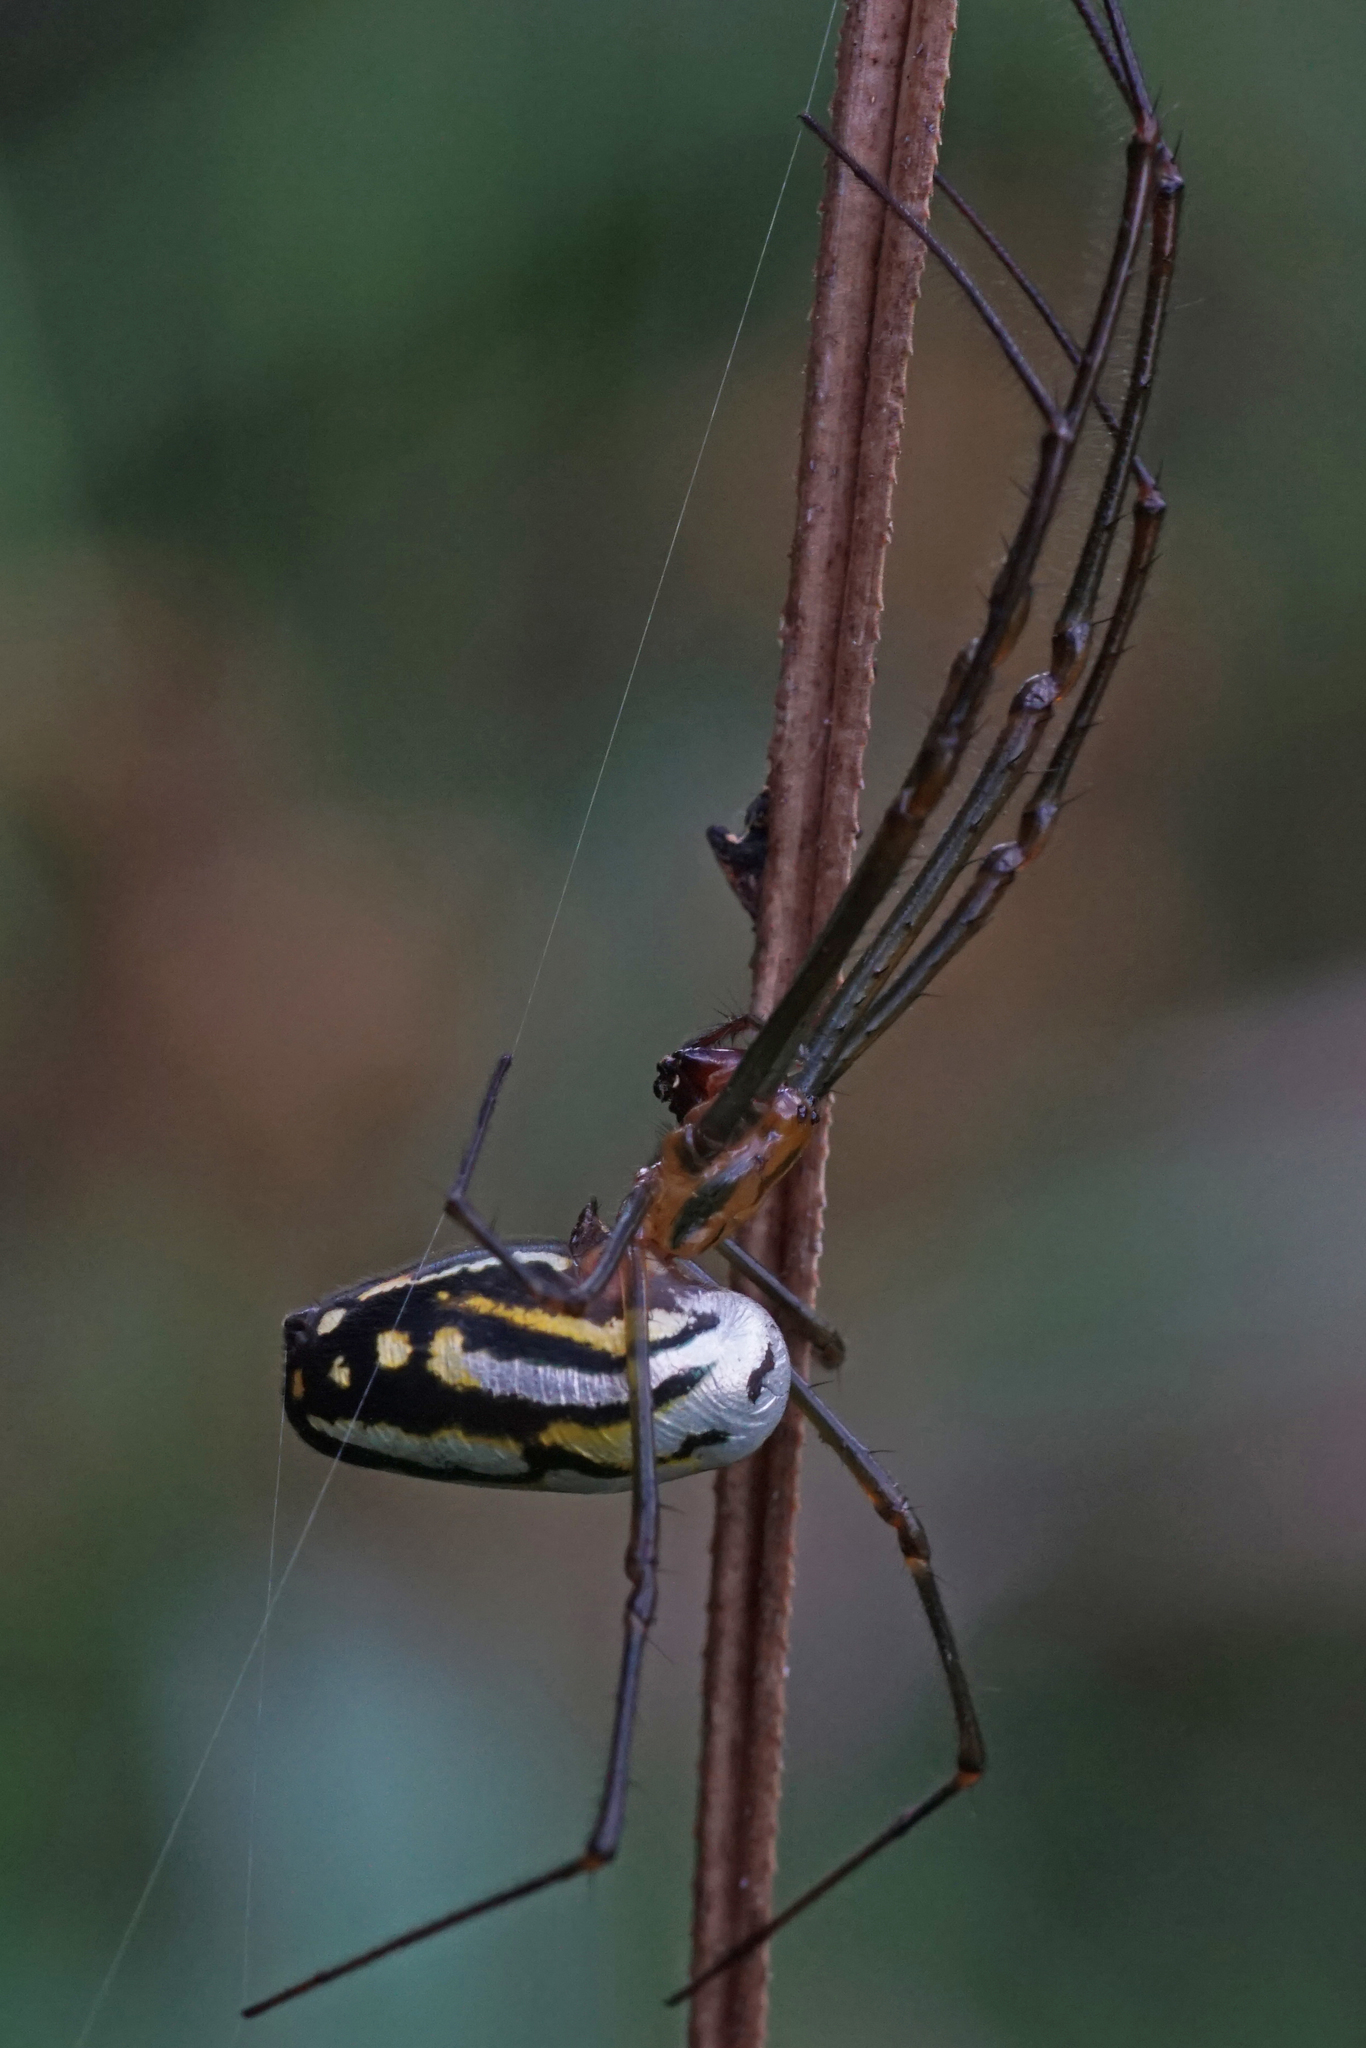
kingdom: Animalia
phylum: Arthropoda
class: Arachnida
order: Araneae
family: Tetragnathidae
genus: Leucauge
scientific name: Leucauge argyra
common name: Longjawed orb weavers
